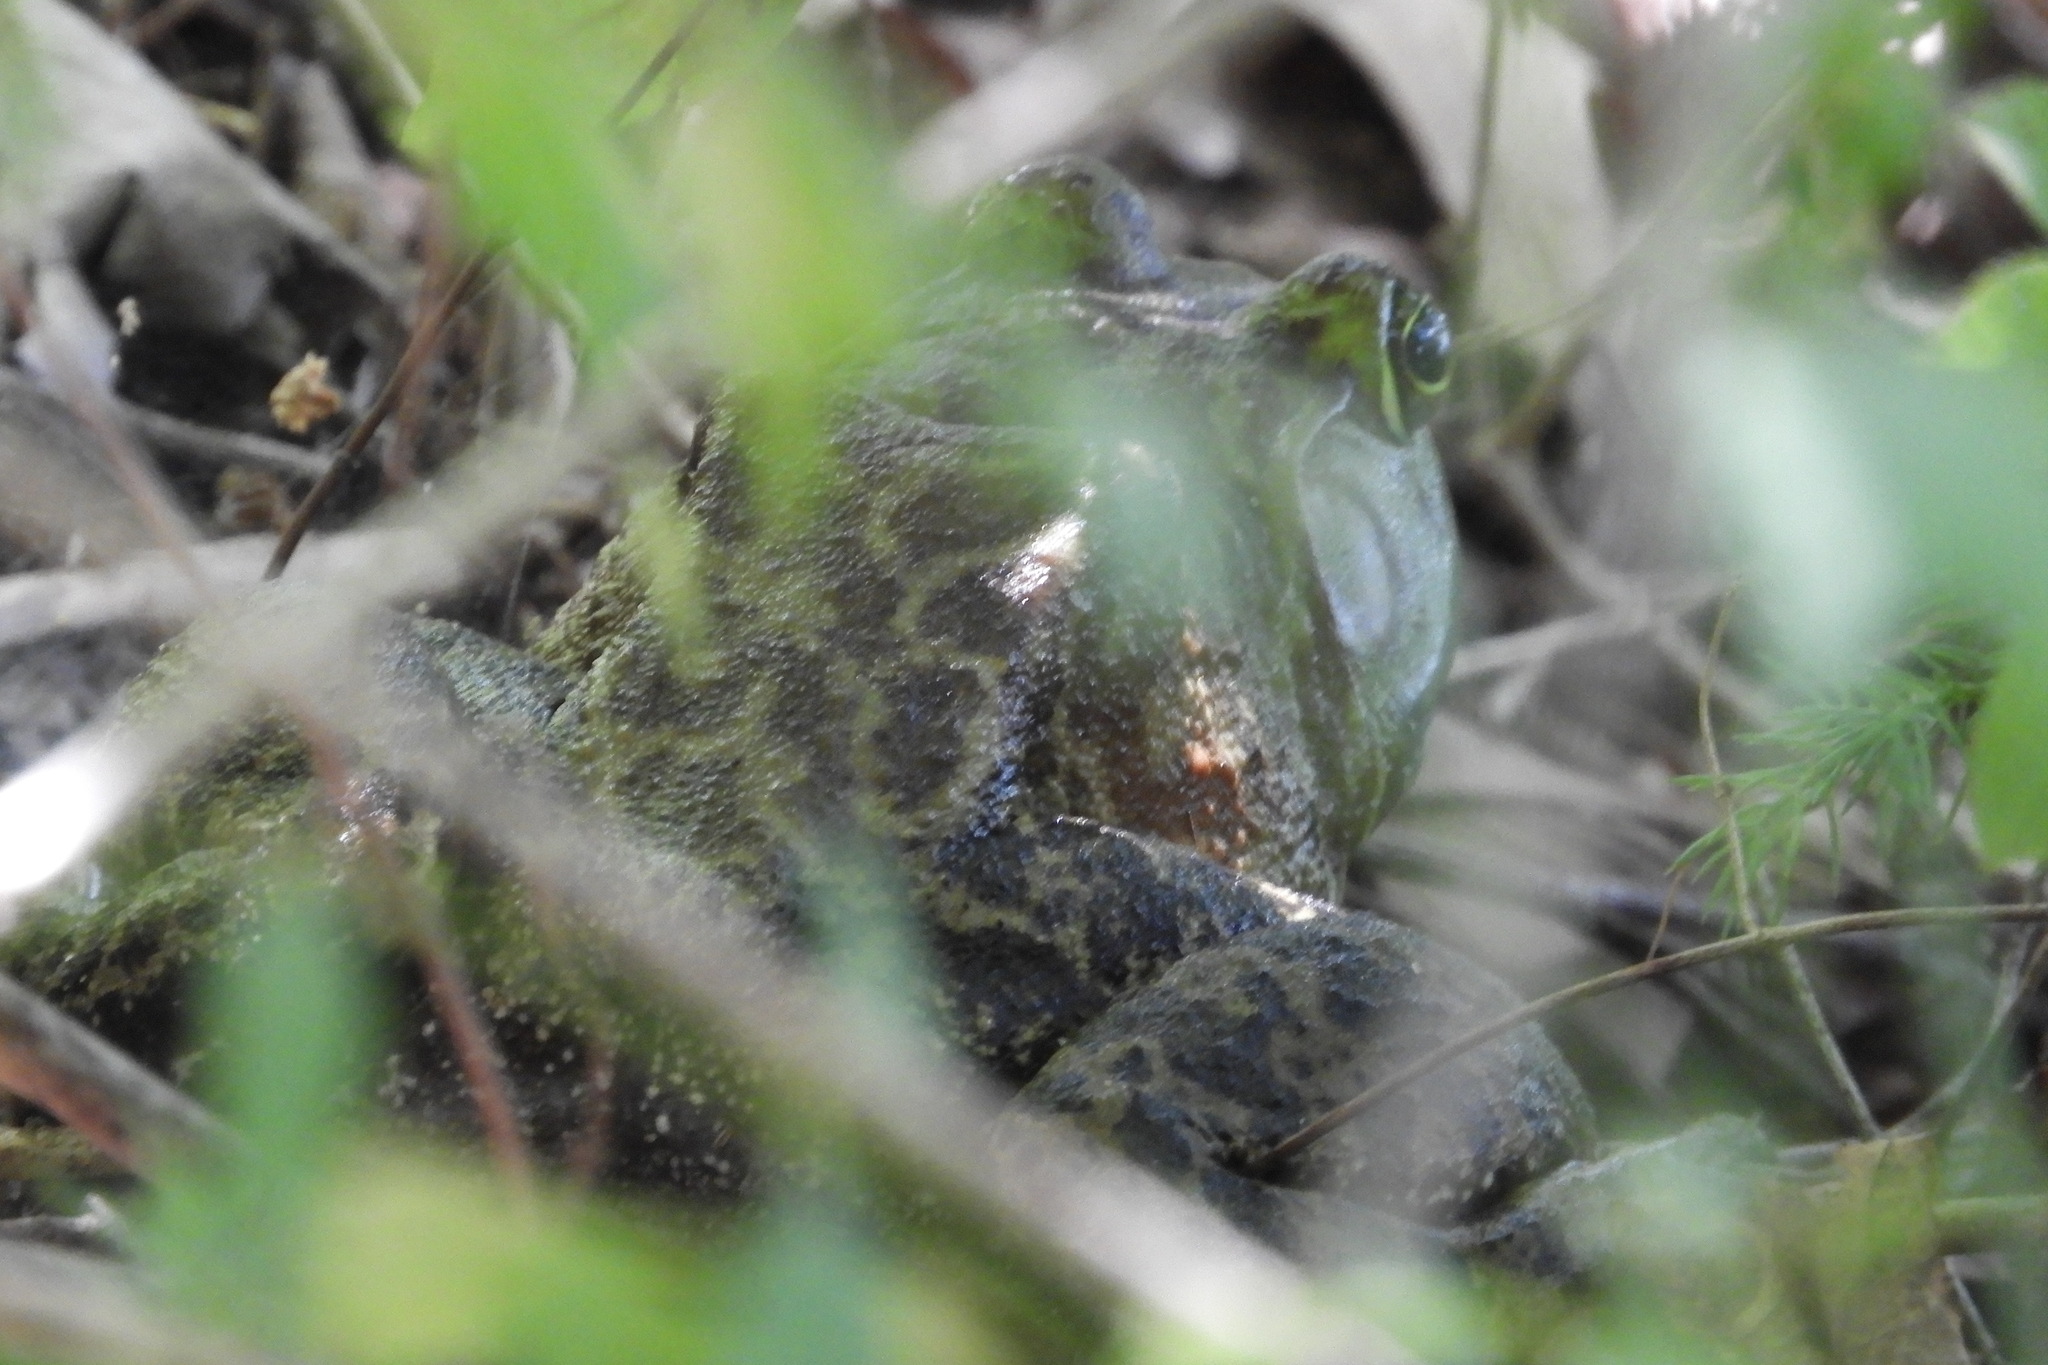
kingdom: Animalia
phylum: Chordata
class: Amphibia
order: Anura
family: Ranidae
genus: Lithobates
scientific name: Lithobates catesbeianus
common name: American bullfrog
